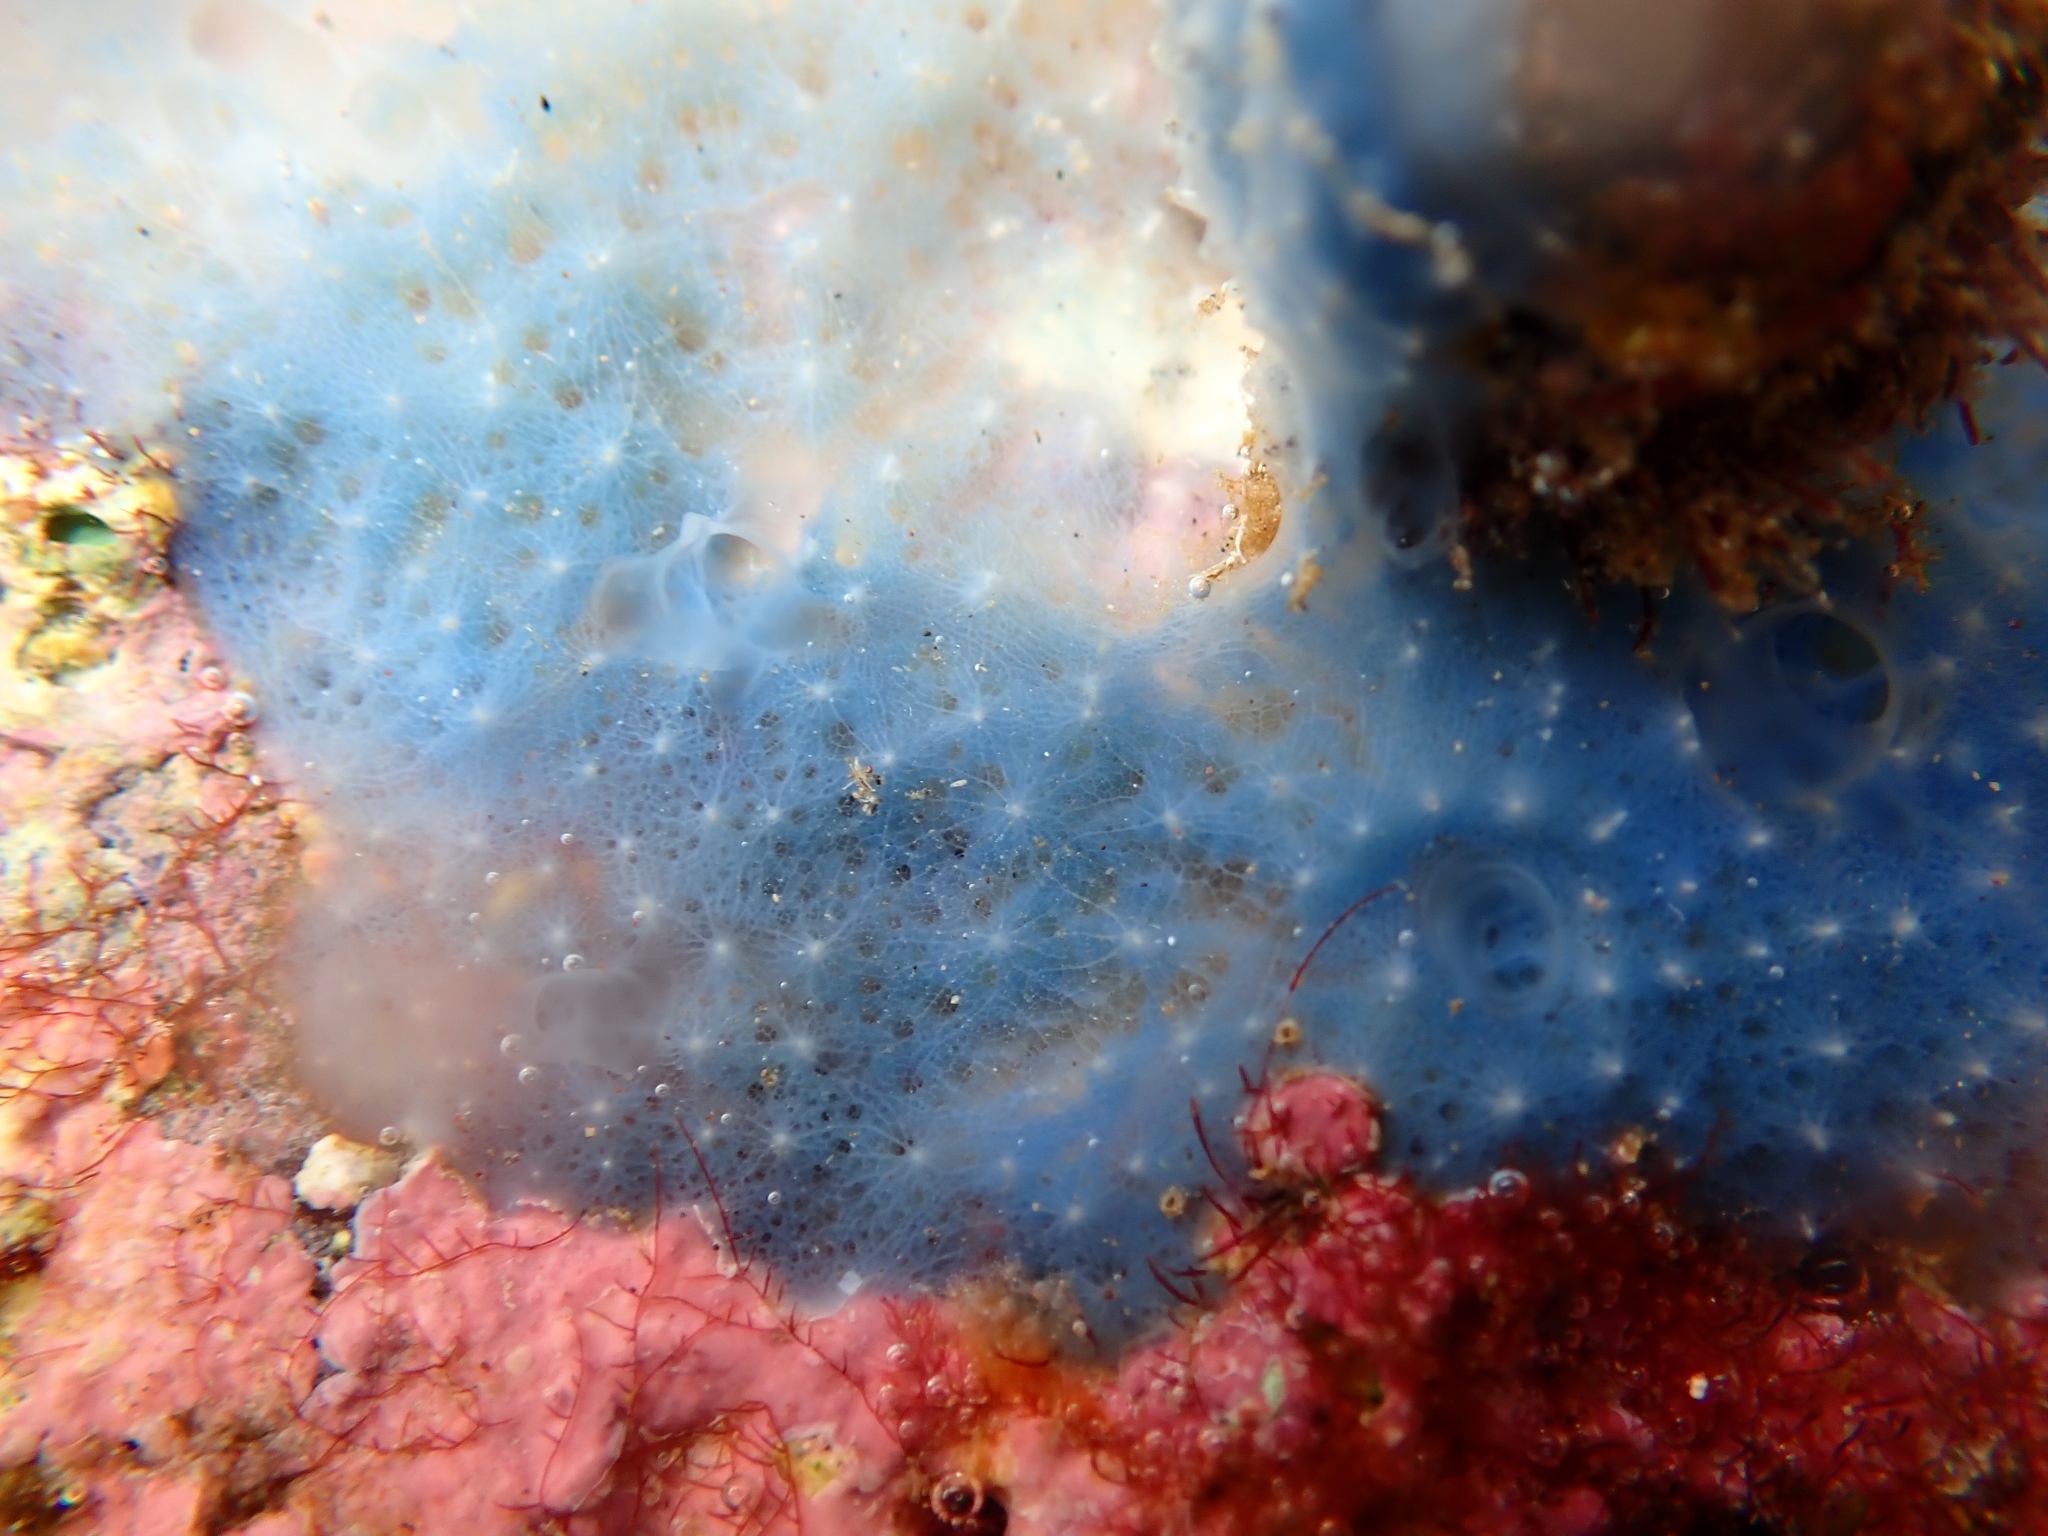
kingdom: Animalia
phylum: Porifera
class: Demospongiae
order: Dictyoceratida
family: Dysideidae
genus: Dysidea
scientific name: Dysidea fragilis
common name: Goosebump sponge
